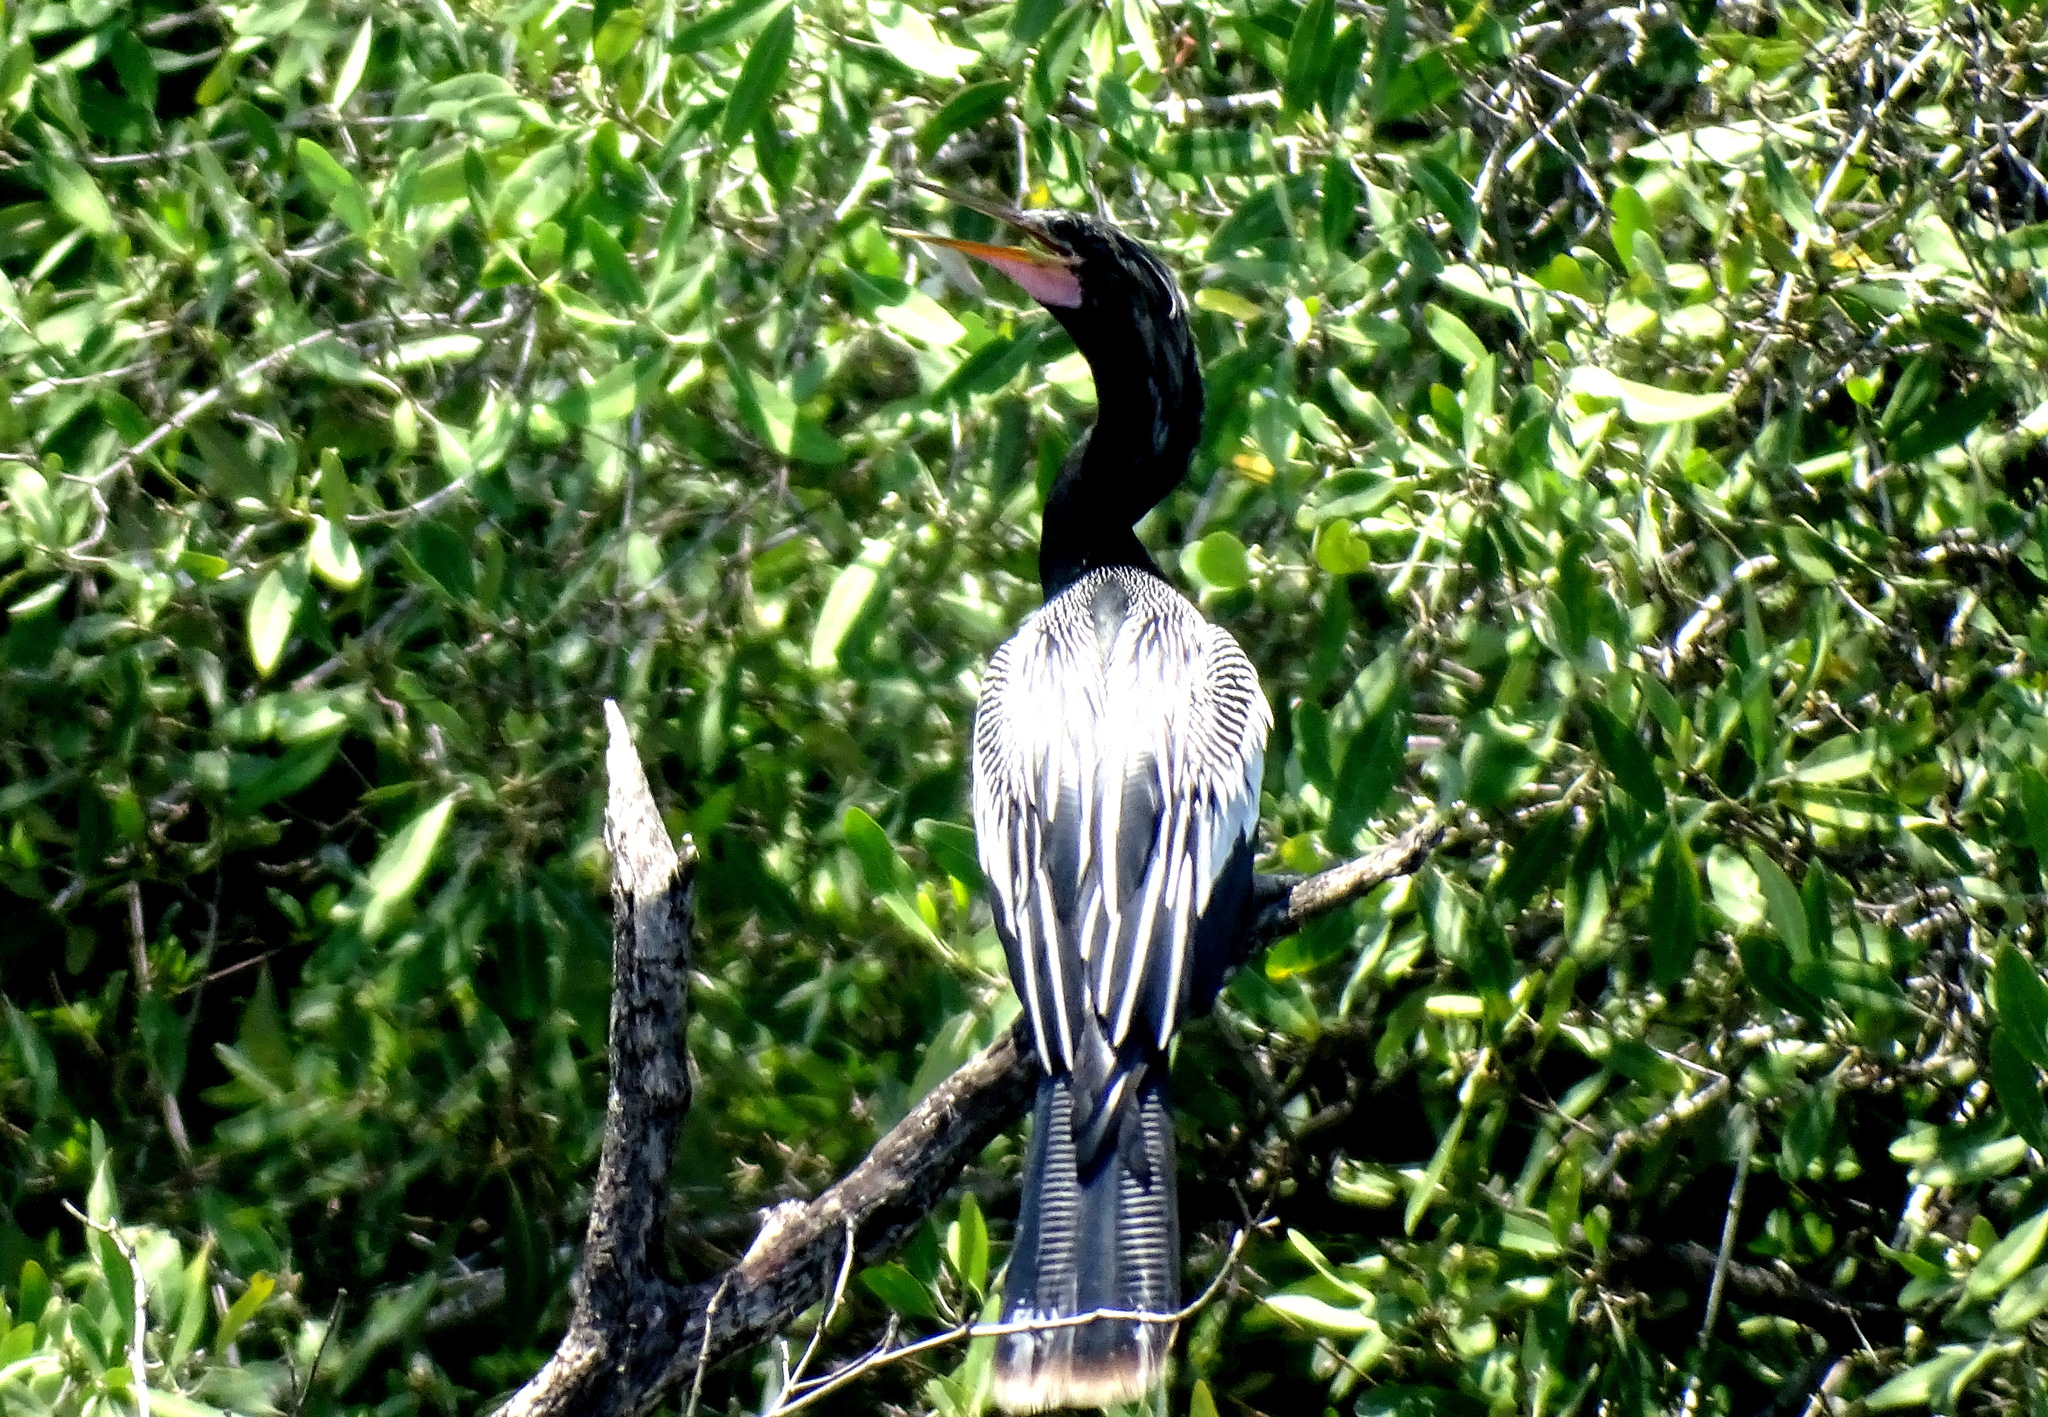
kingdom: Animalia
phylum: Chordata
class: Aves
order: Suliformes
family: Anhingidae
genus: Anhinga
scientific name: Anhinga anhinga
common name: Anhinga
